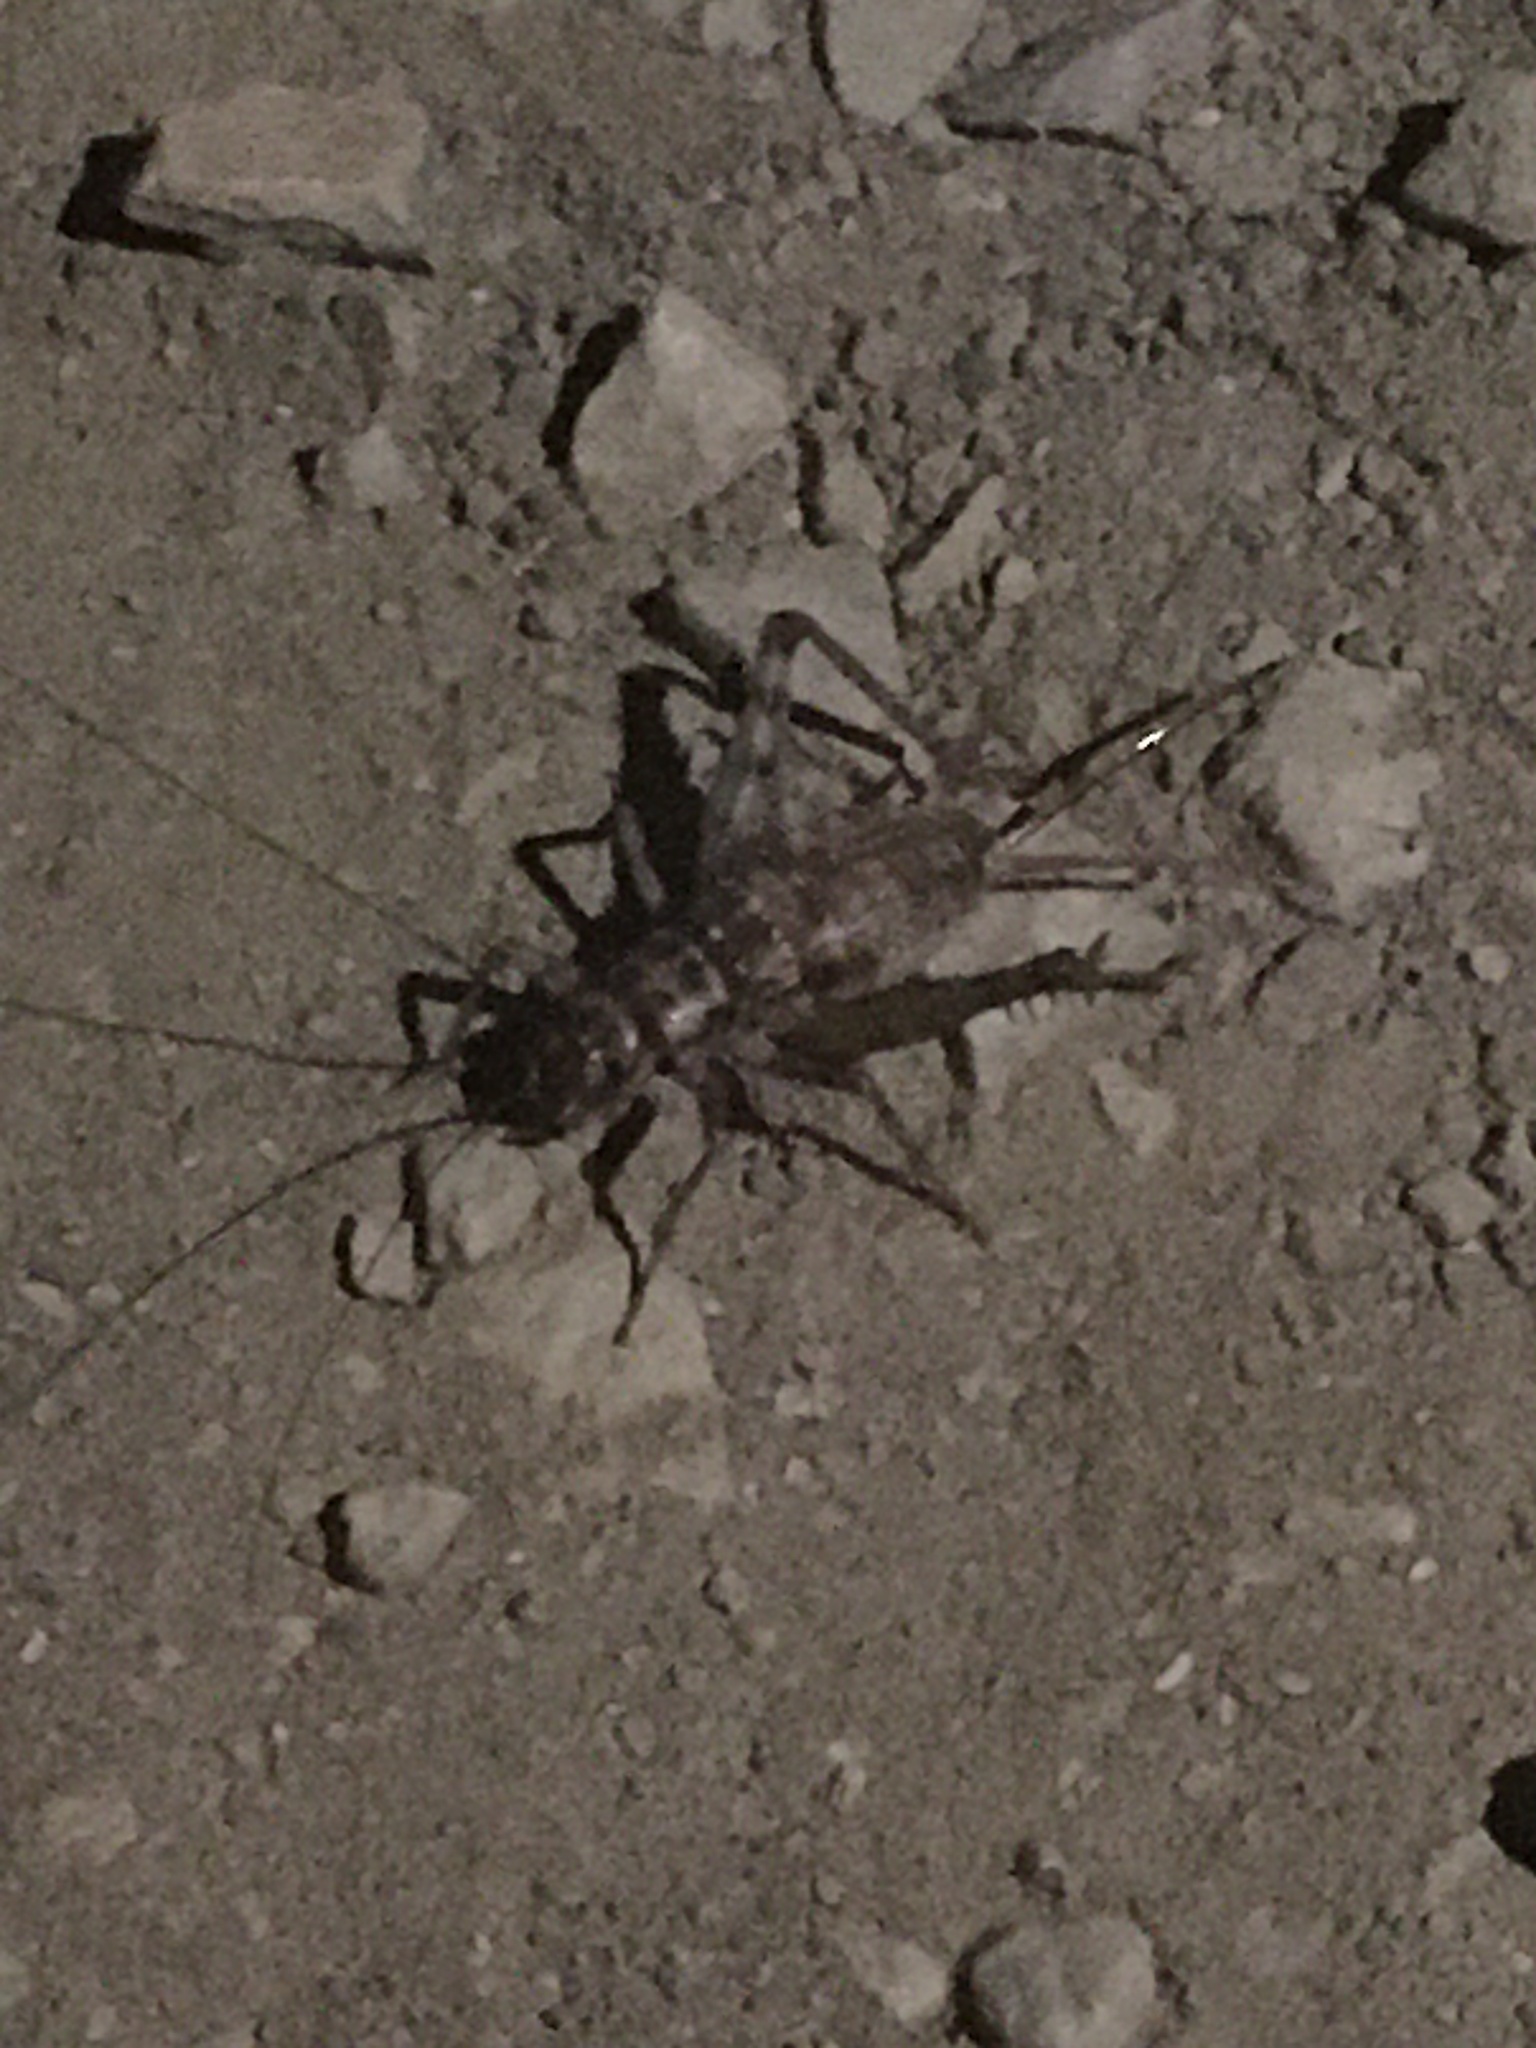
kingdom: Animalia
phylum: Arthropoda
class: Insecta
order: Orthoptera
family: Gryllidae
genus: Gryllomorpha
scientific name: Gryllomorpha dalmatina
